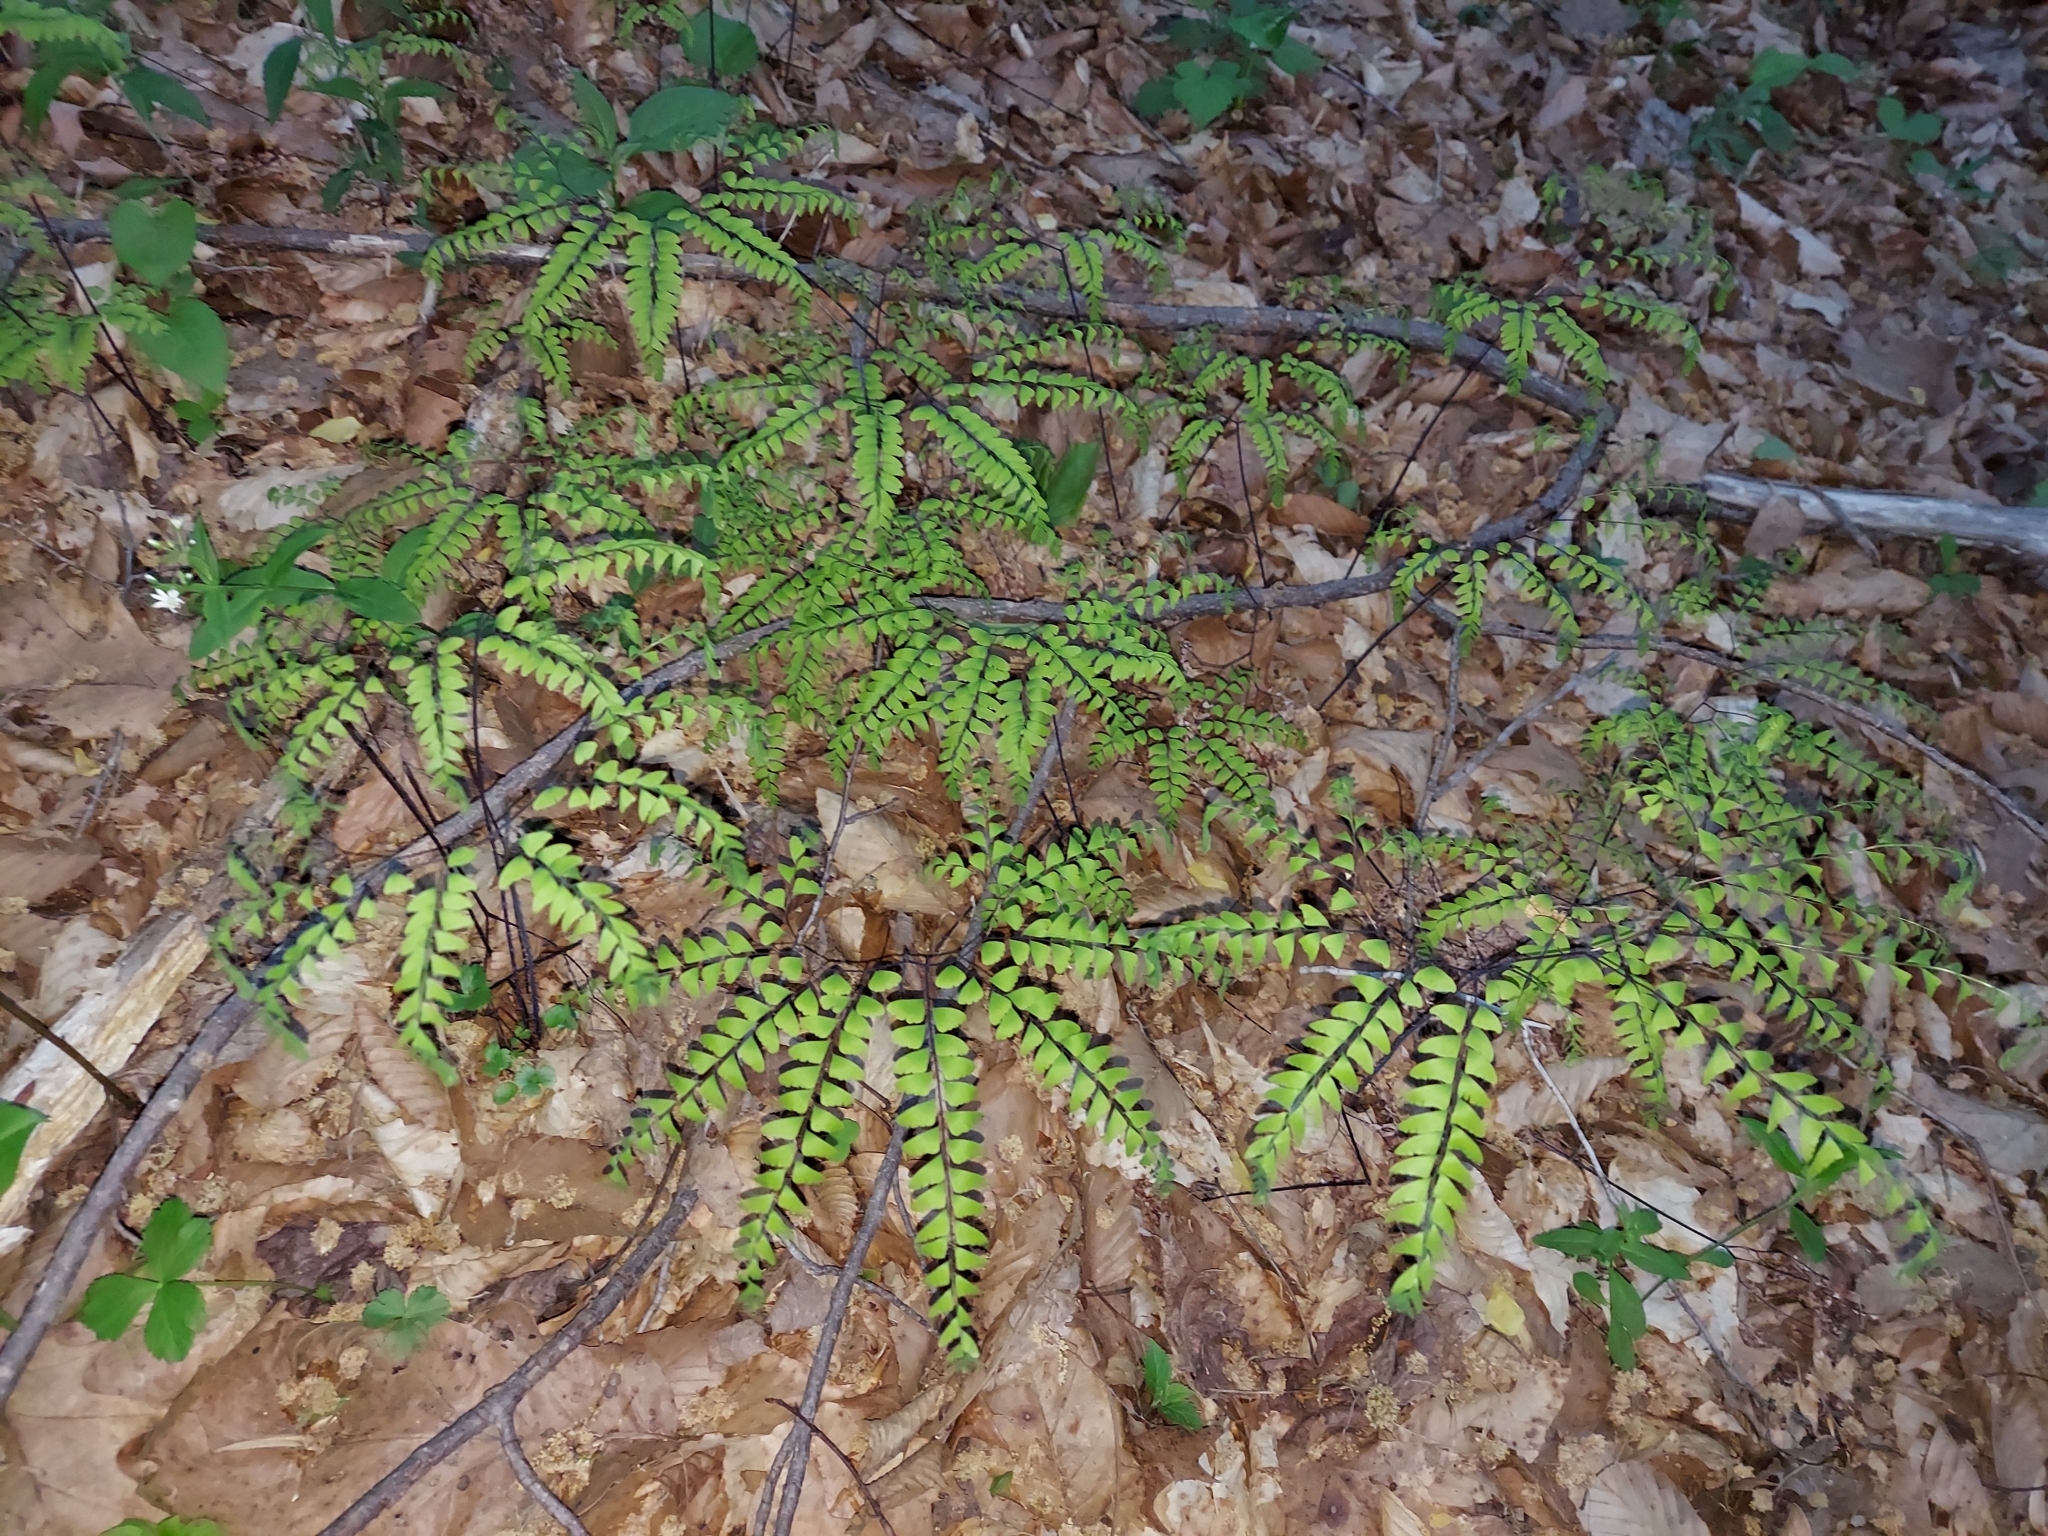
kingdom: Plantae
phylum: Tracheophyta
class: Polypodiopsida
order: Polypodiales
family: Pteridaceae
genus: Adiantum
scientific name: Adiantum pedatum
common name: Five-finger fern
